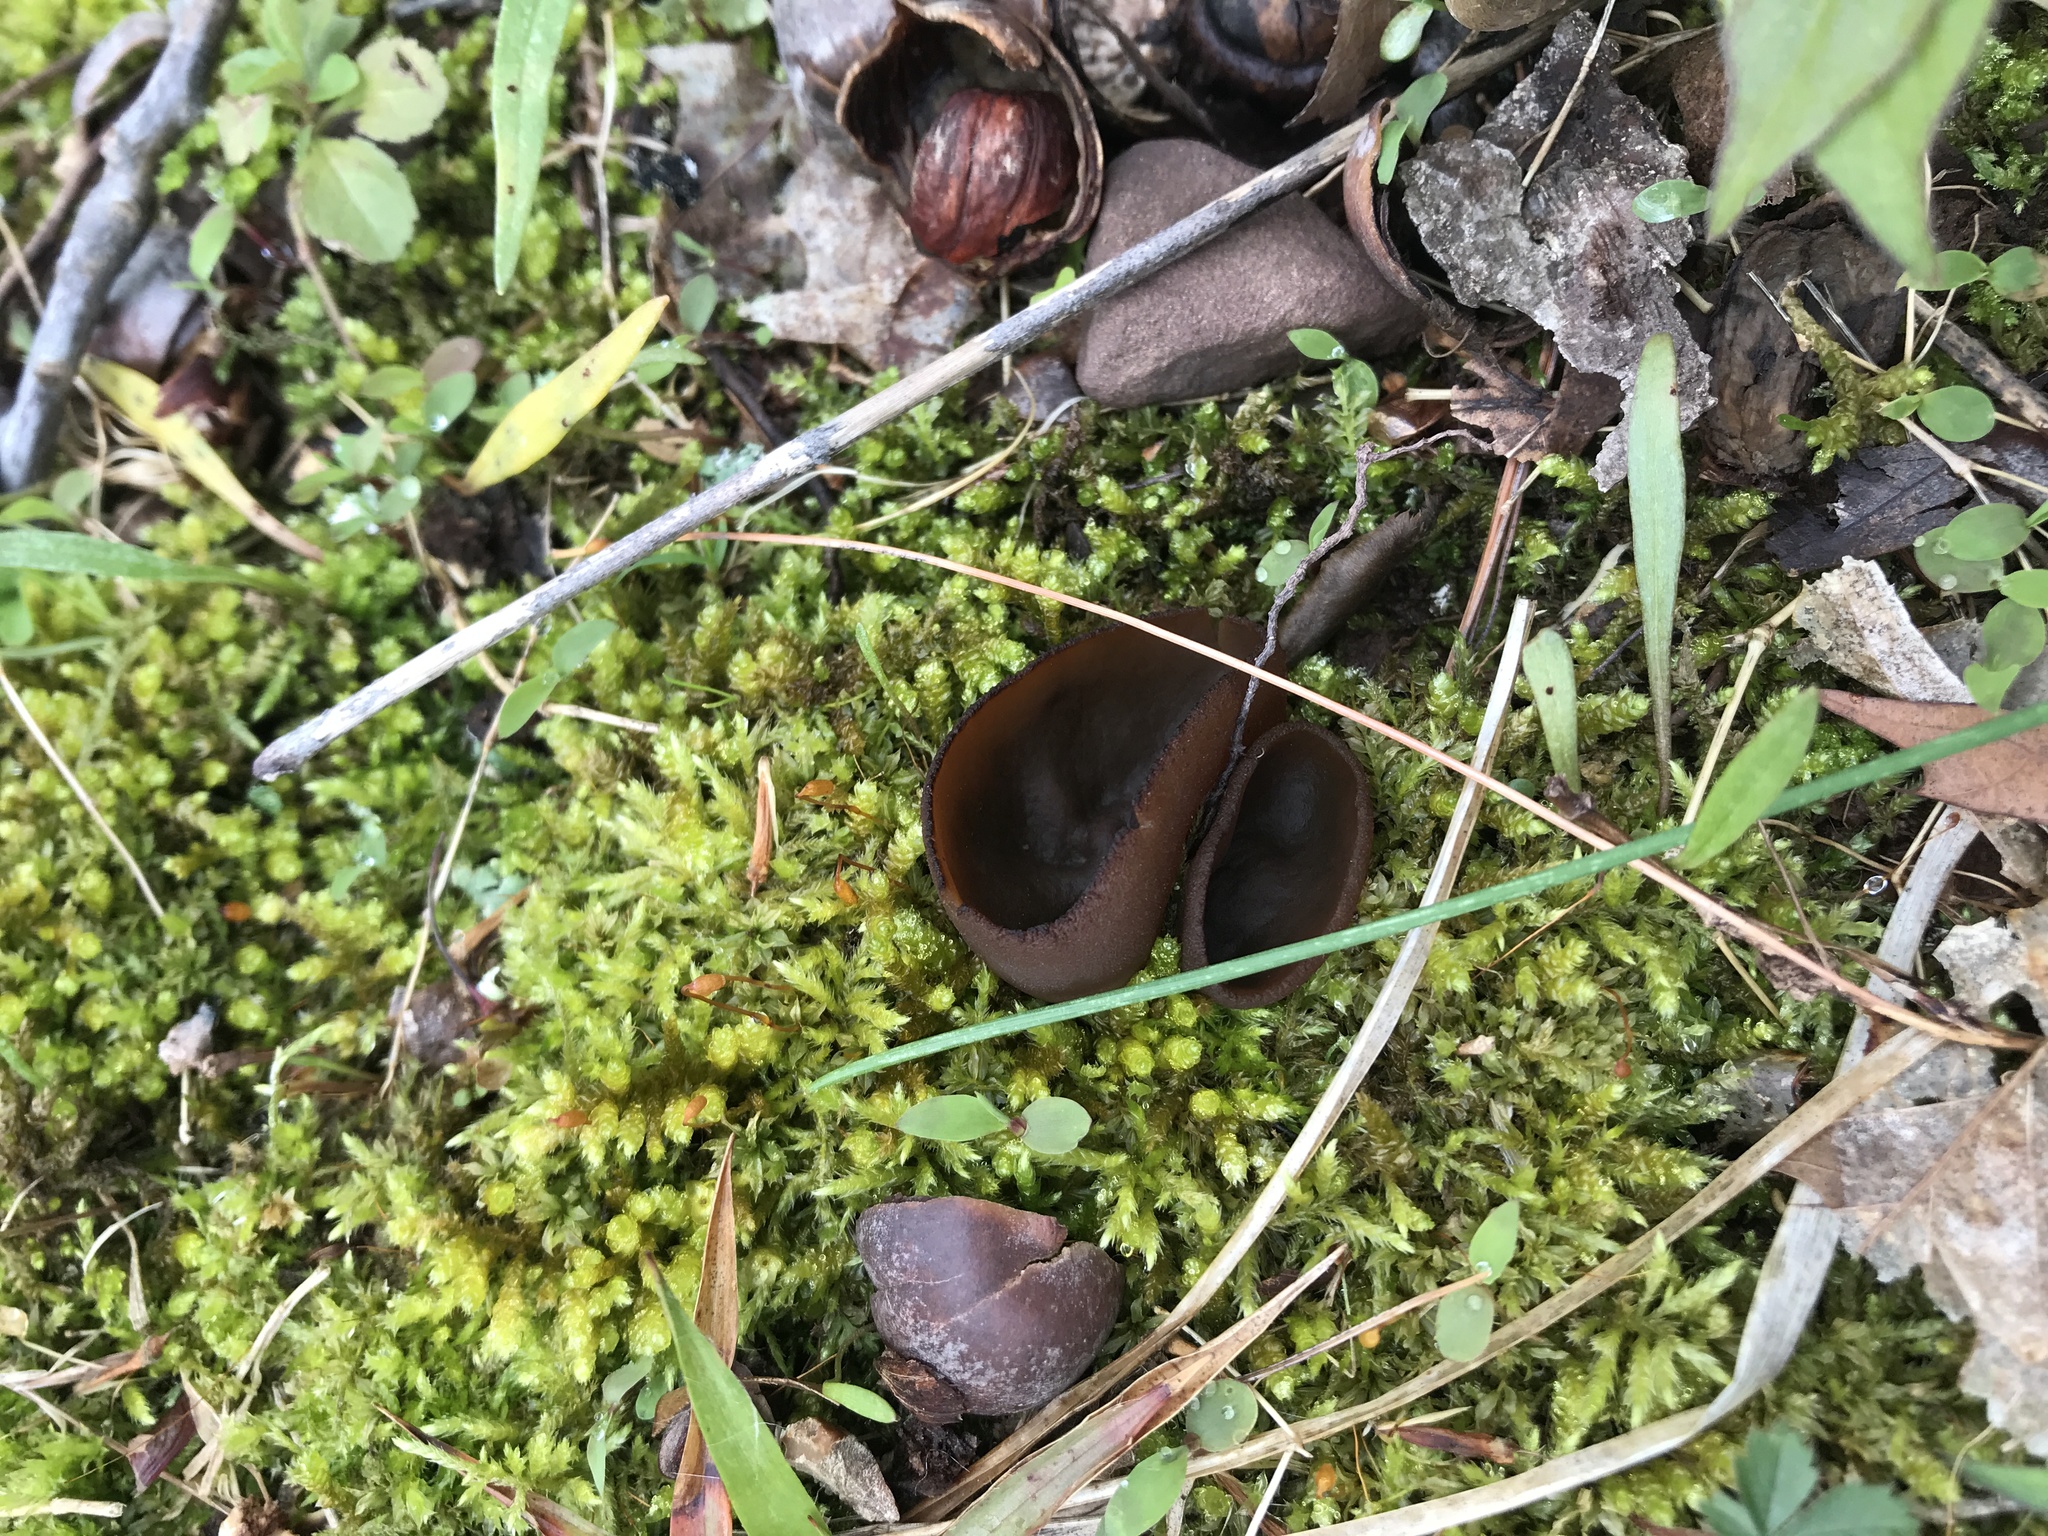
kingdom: Fungi
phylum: Ascomycota
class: Pezizomycetes
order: Pezizales
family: Pezizaceae
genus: Phylloscypha
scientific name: Phylloscypha phyllogena
